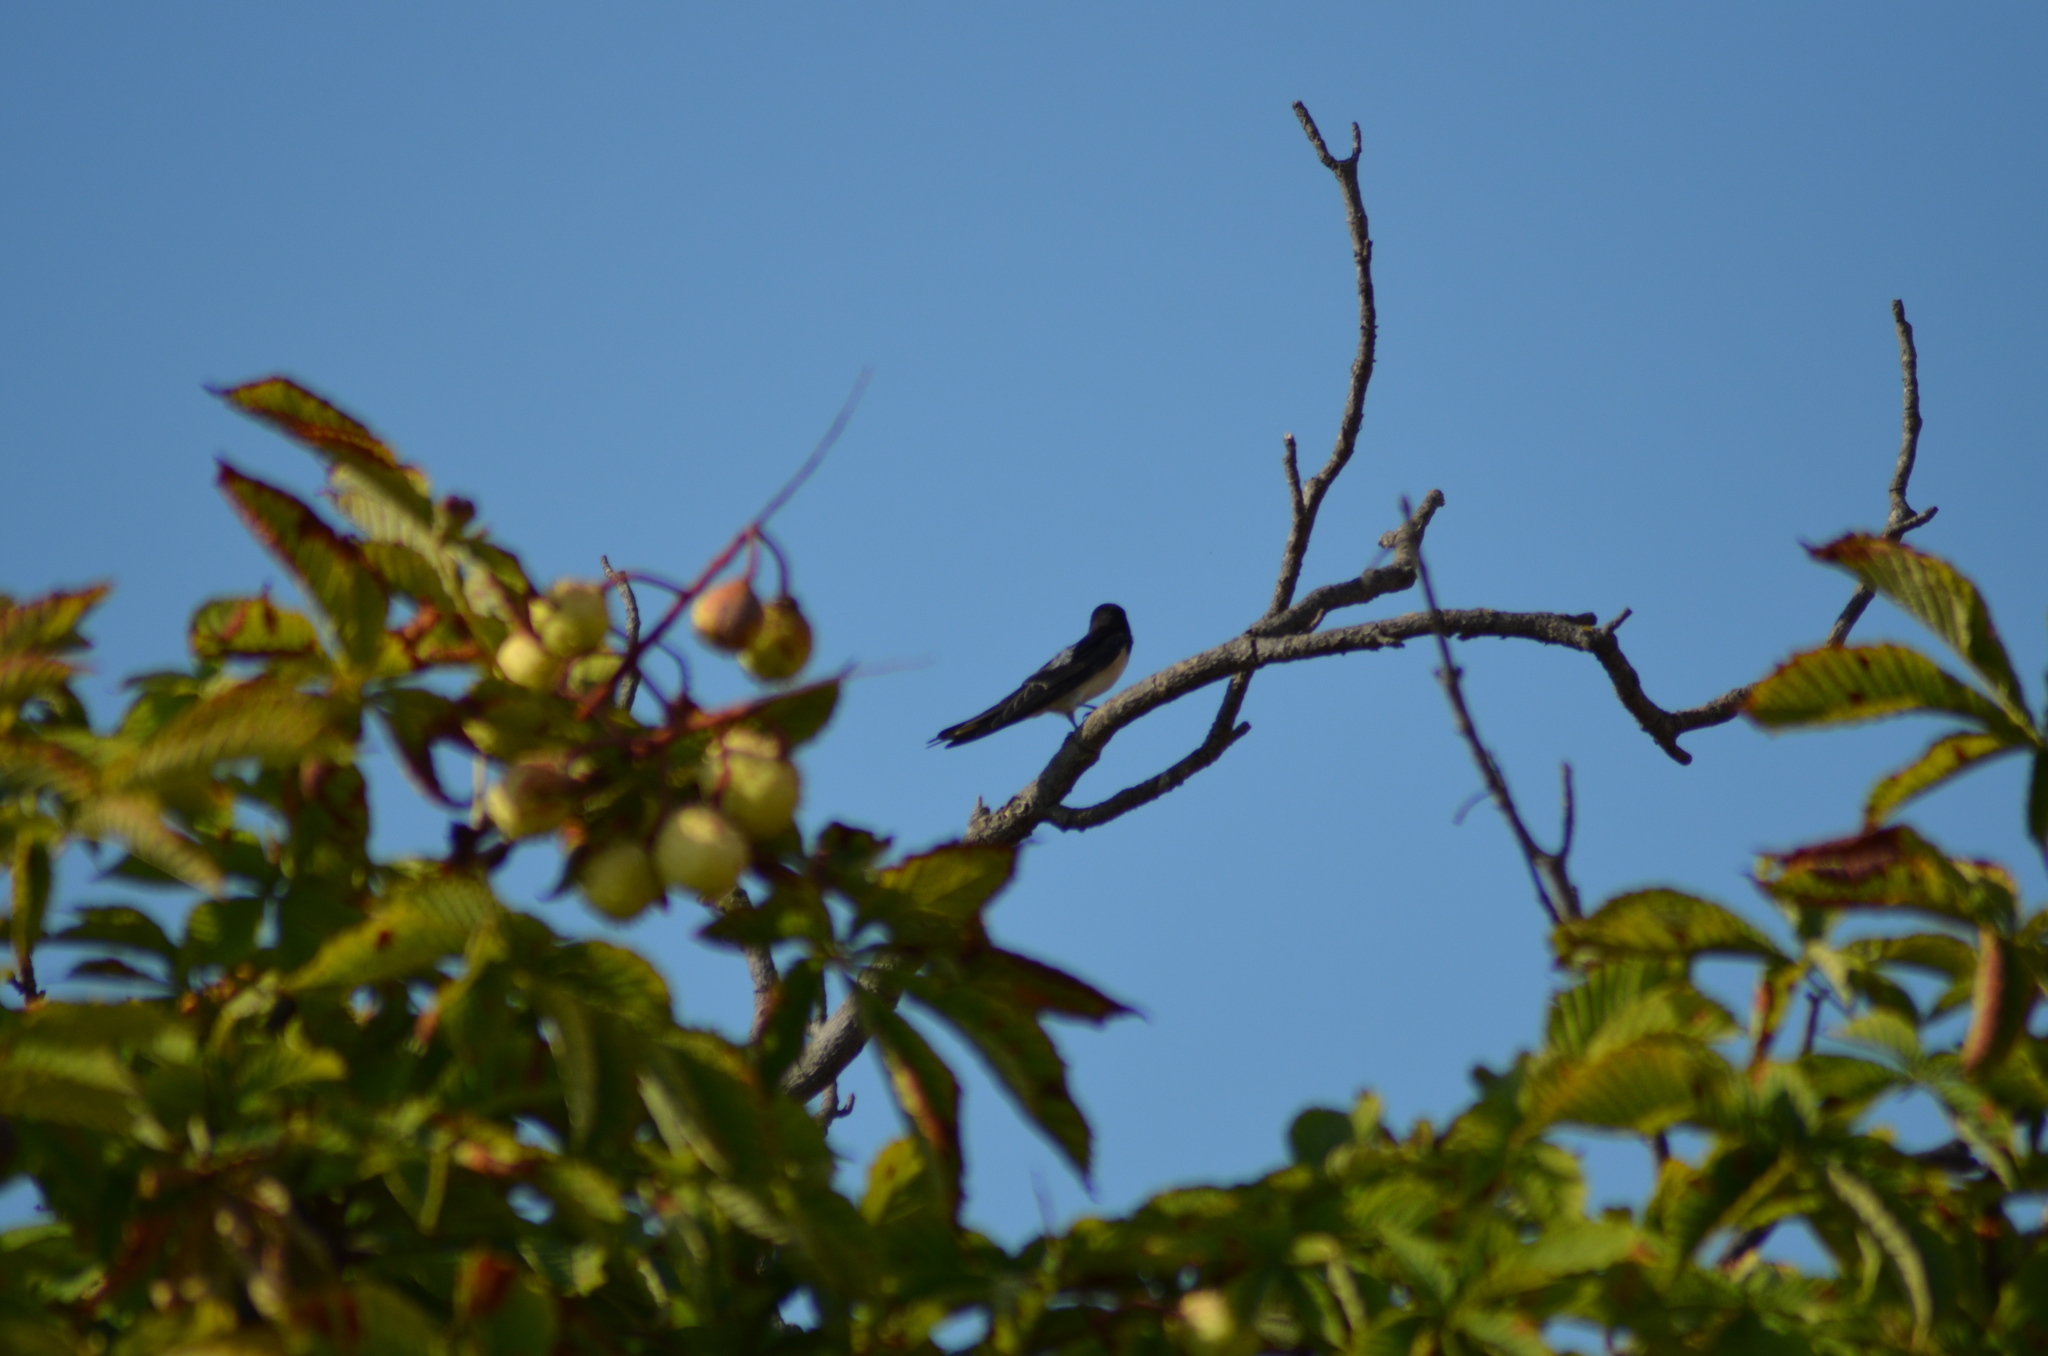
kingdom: Animalia
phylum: Chordata
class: Aves
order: Passeriformes
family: Hirundinidae
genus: Hirundo
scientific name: Hirundo rustica
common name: Barn swallow
